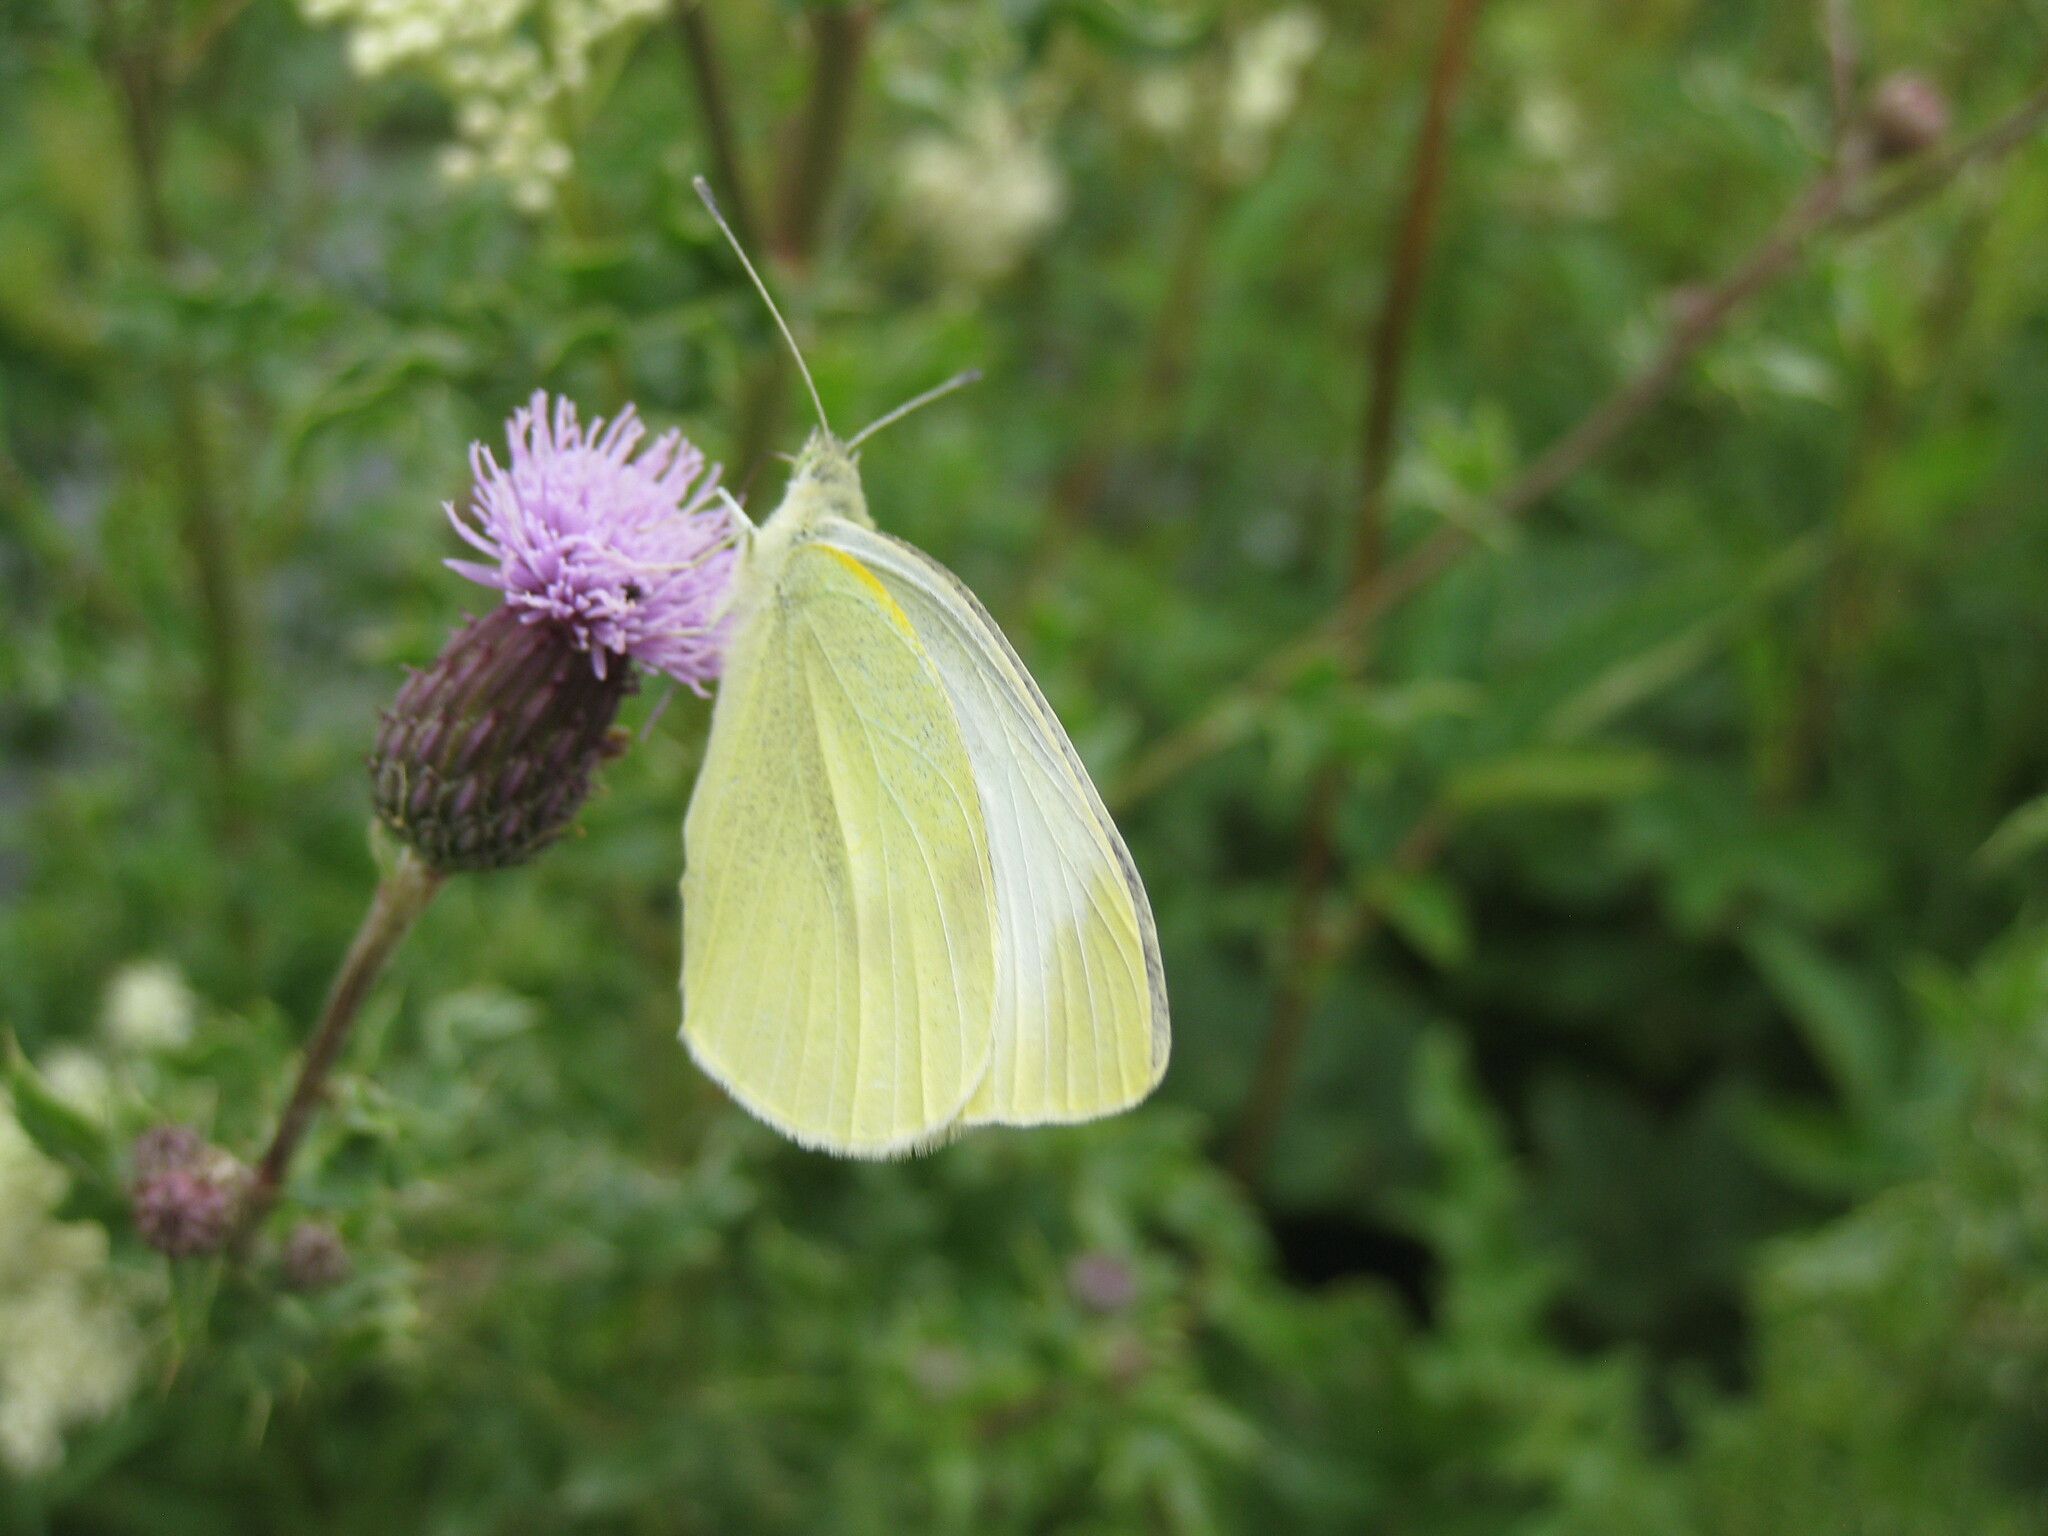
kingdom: Animalia
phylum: Arthropoda
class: Insecta
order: Lepidoptera
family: Pieridae
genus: Pieris
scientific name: Pieris rapae
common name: Small white
